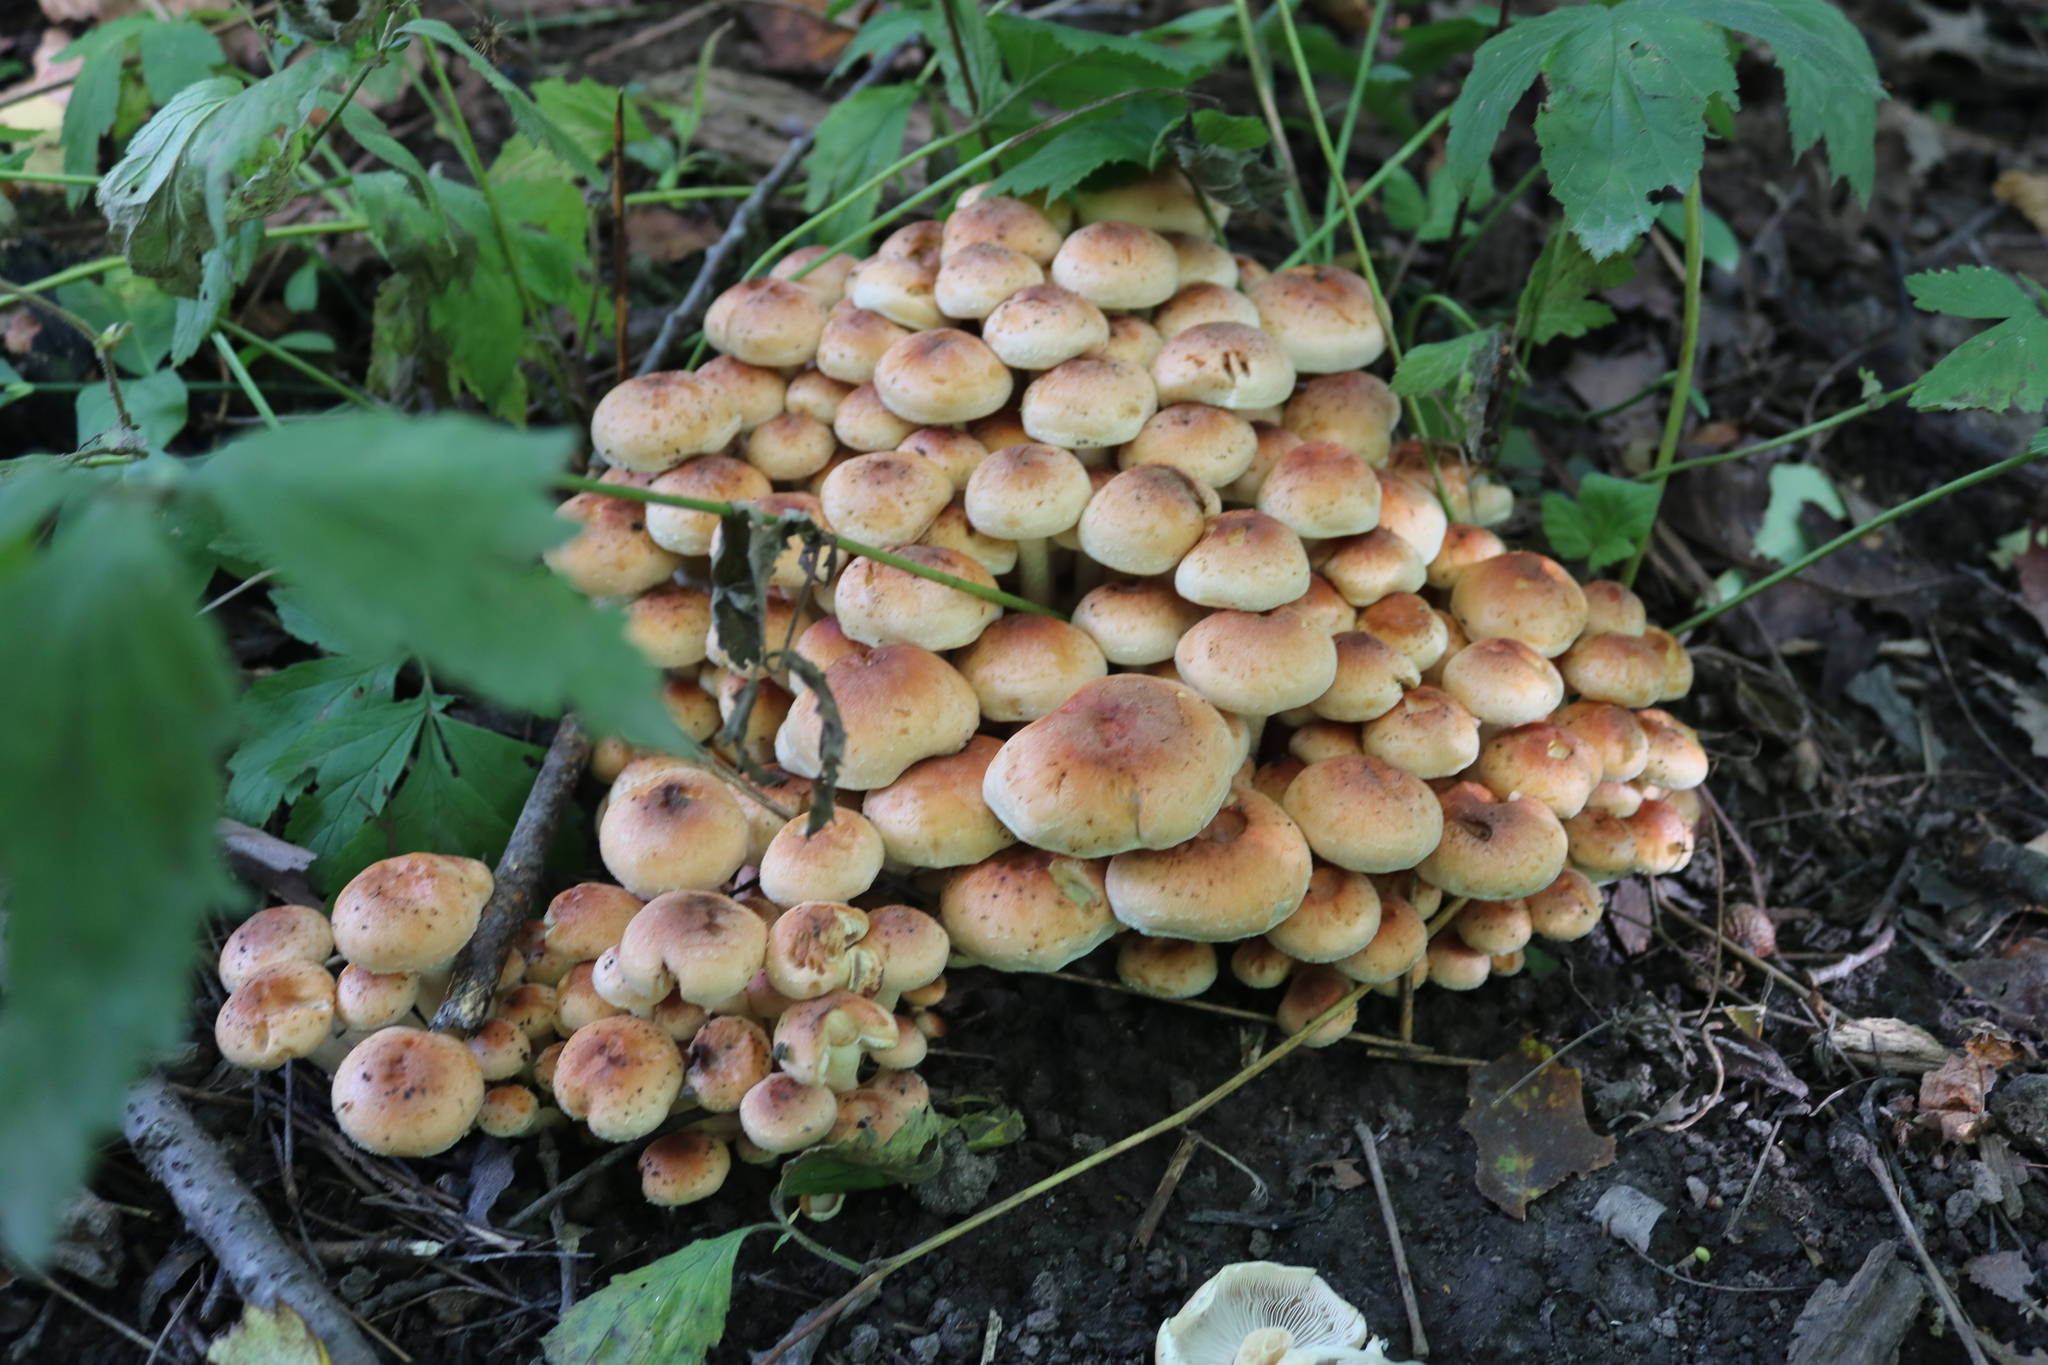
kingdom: Fungi
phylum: Basidiomycota
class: Agaricomycetes
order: Agaricales
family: Strophariaceae
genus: Hypholoma
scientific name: Hypholoma lateritium
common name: Brick caps
